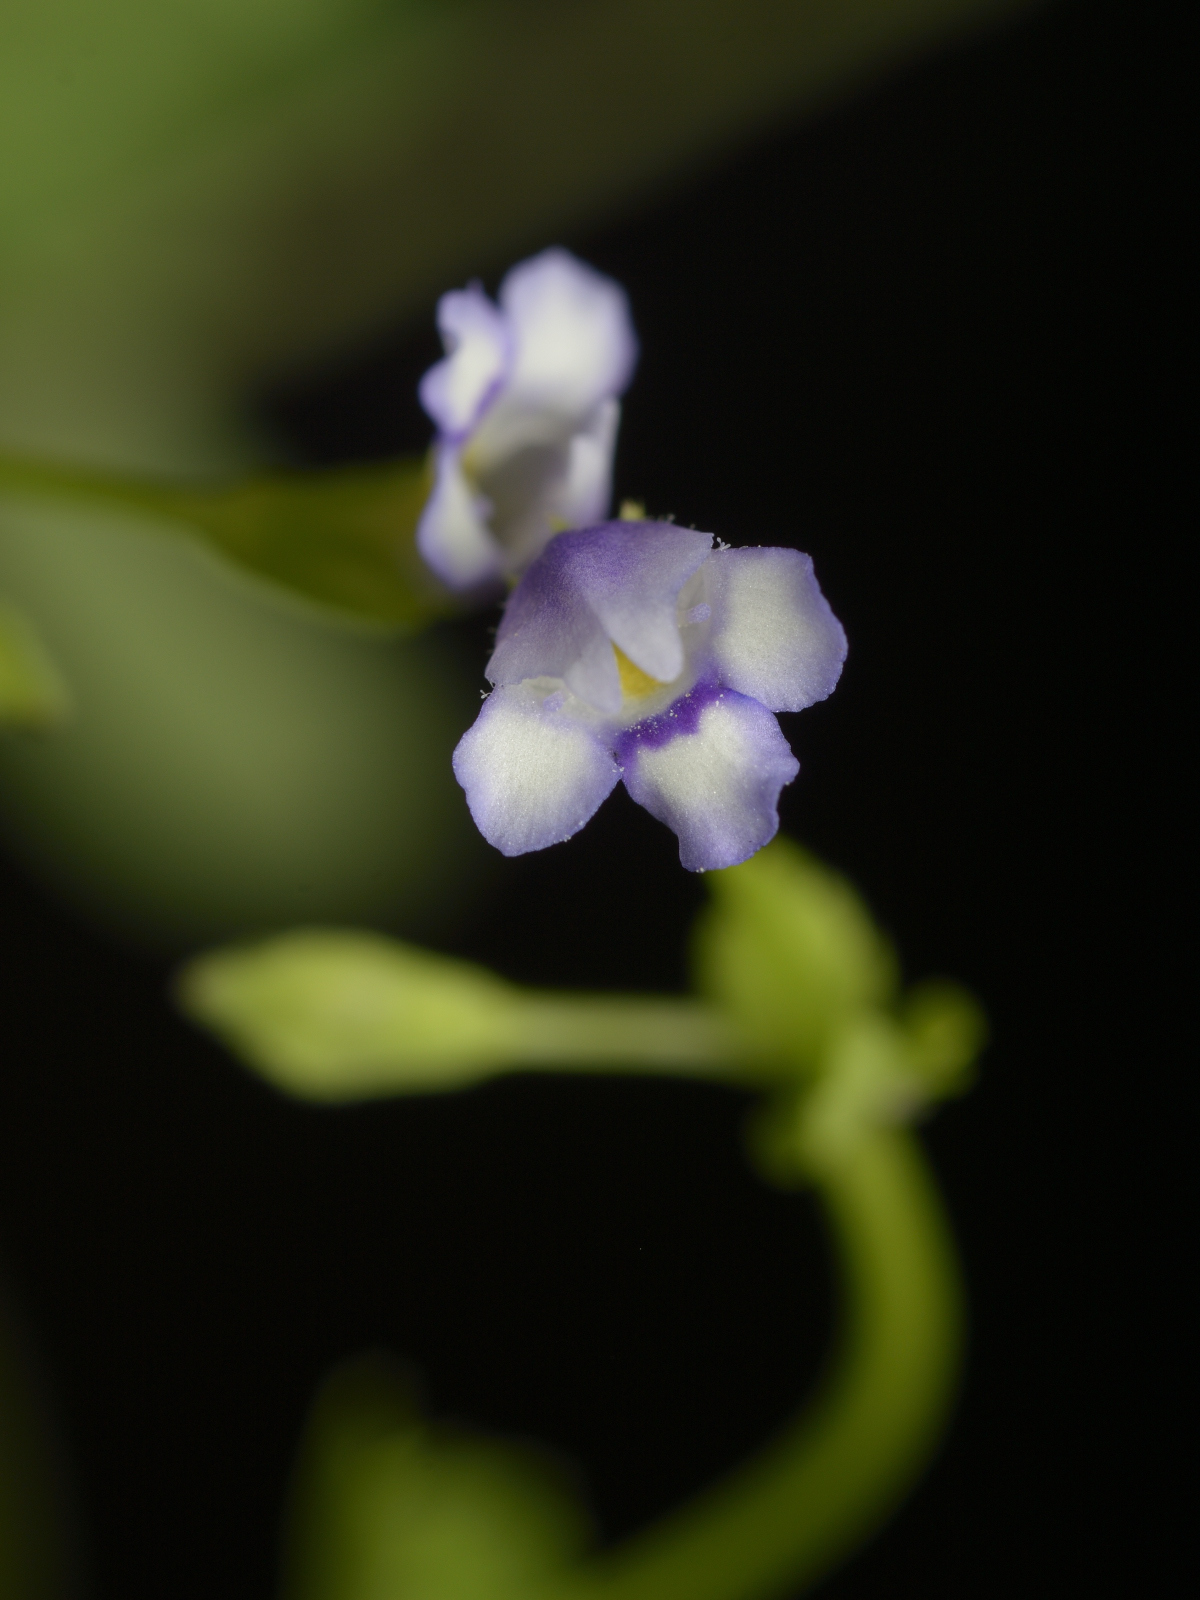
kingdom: Plantae
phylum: Tracheophyta
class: Magnoliopsida
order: Lamiales
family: Linderniaceae
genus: Torenia
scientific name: Torenia crustacea
